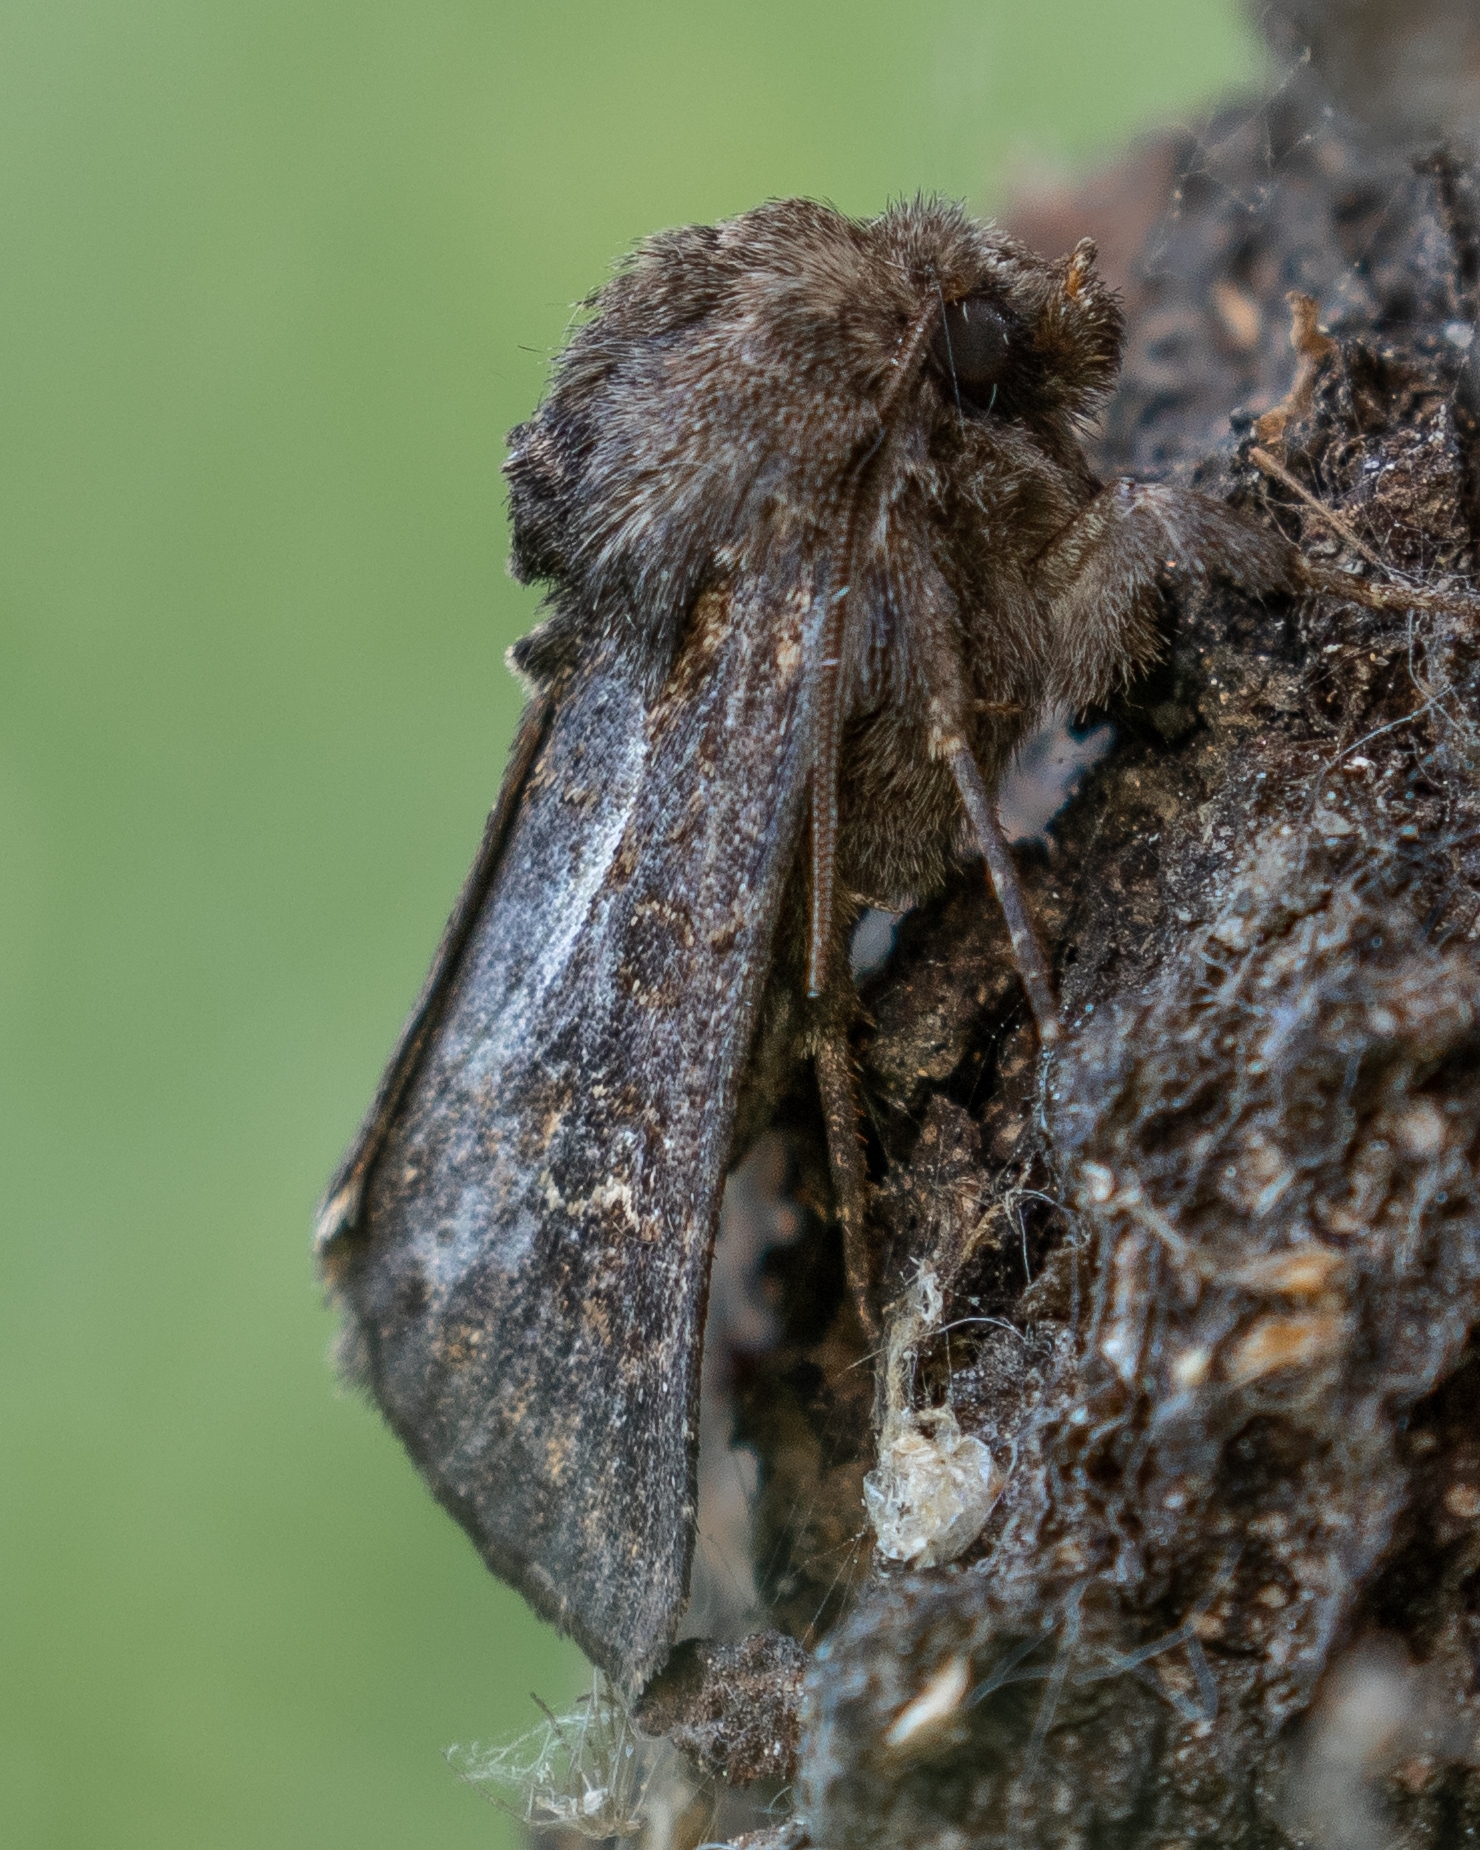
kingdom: Animalia
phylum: Arthropoda
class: Insecta
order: Lepidoptera
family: Noctuidae
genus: Tholera
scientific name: Tholera cespitis
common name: Hedge rustic
